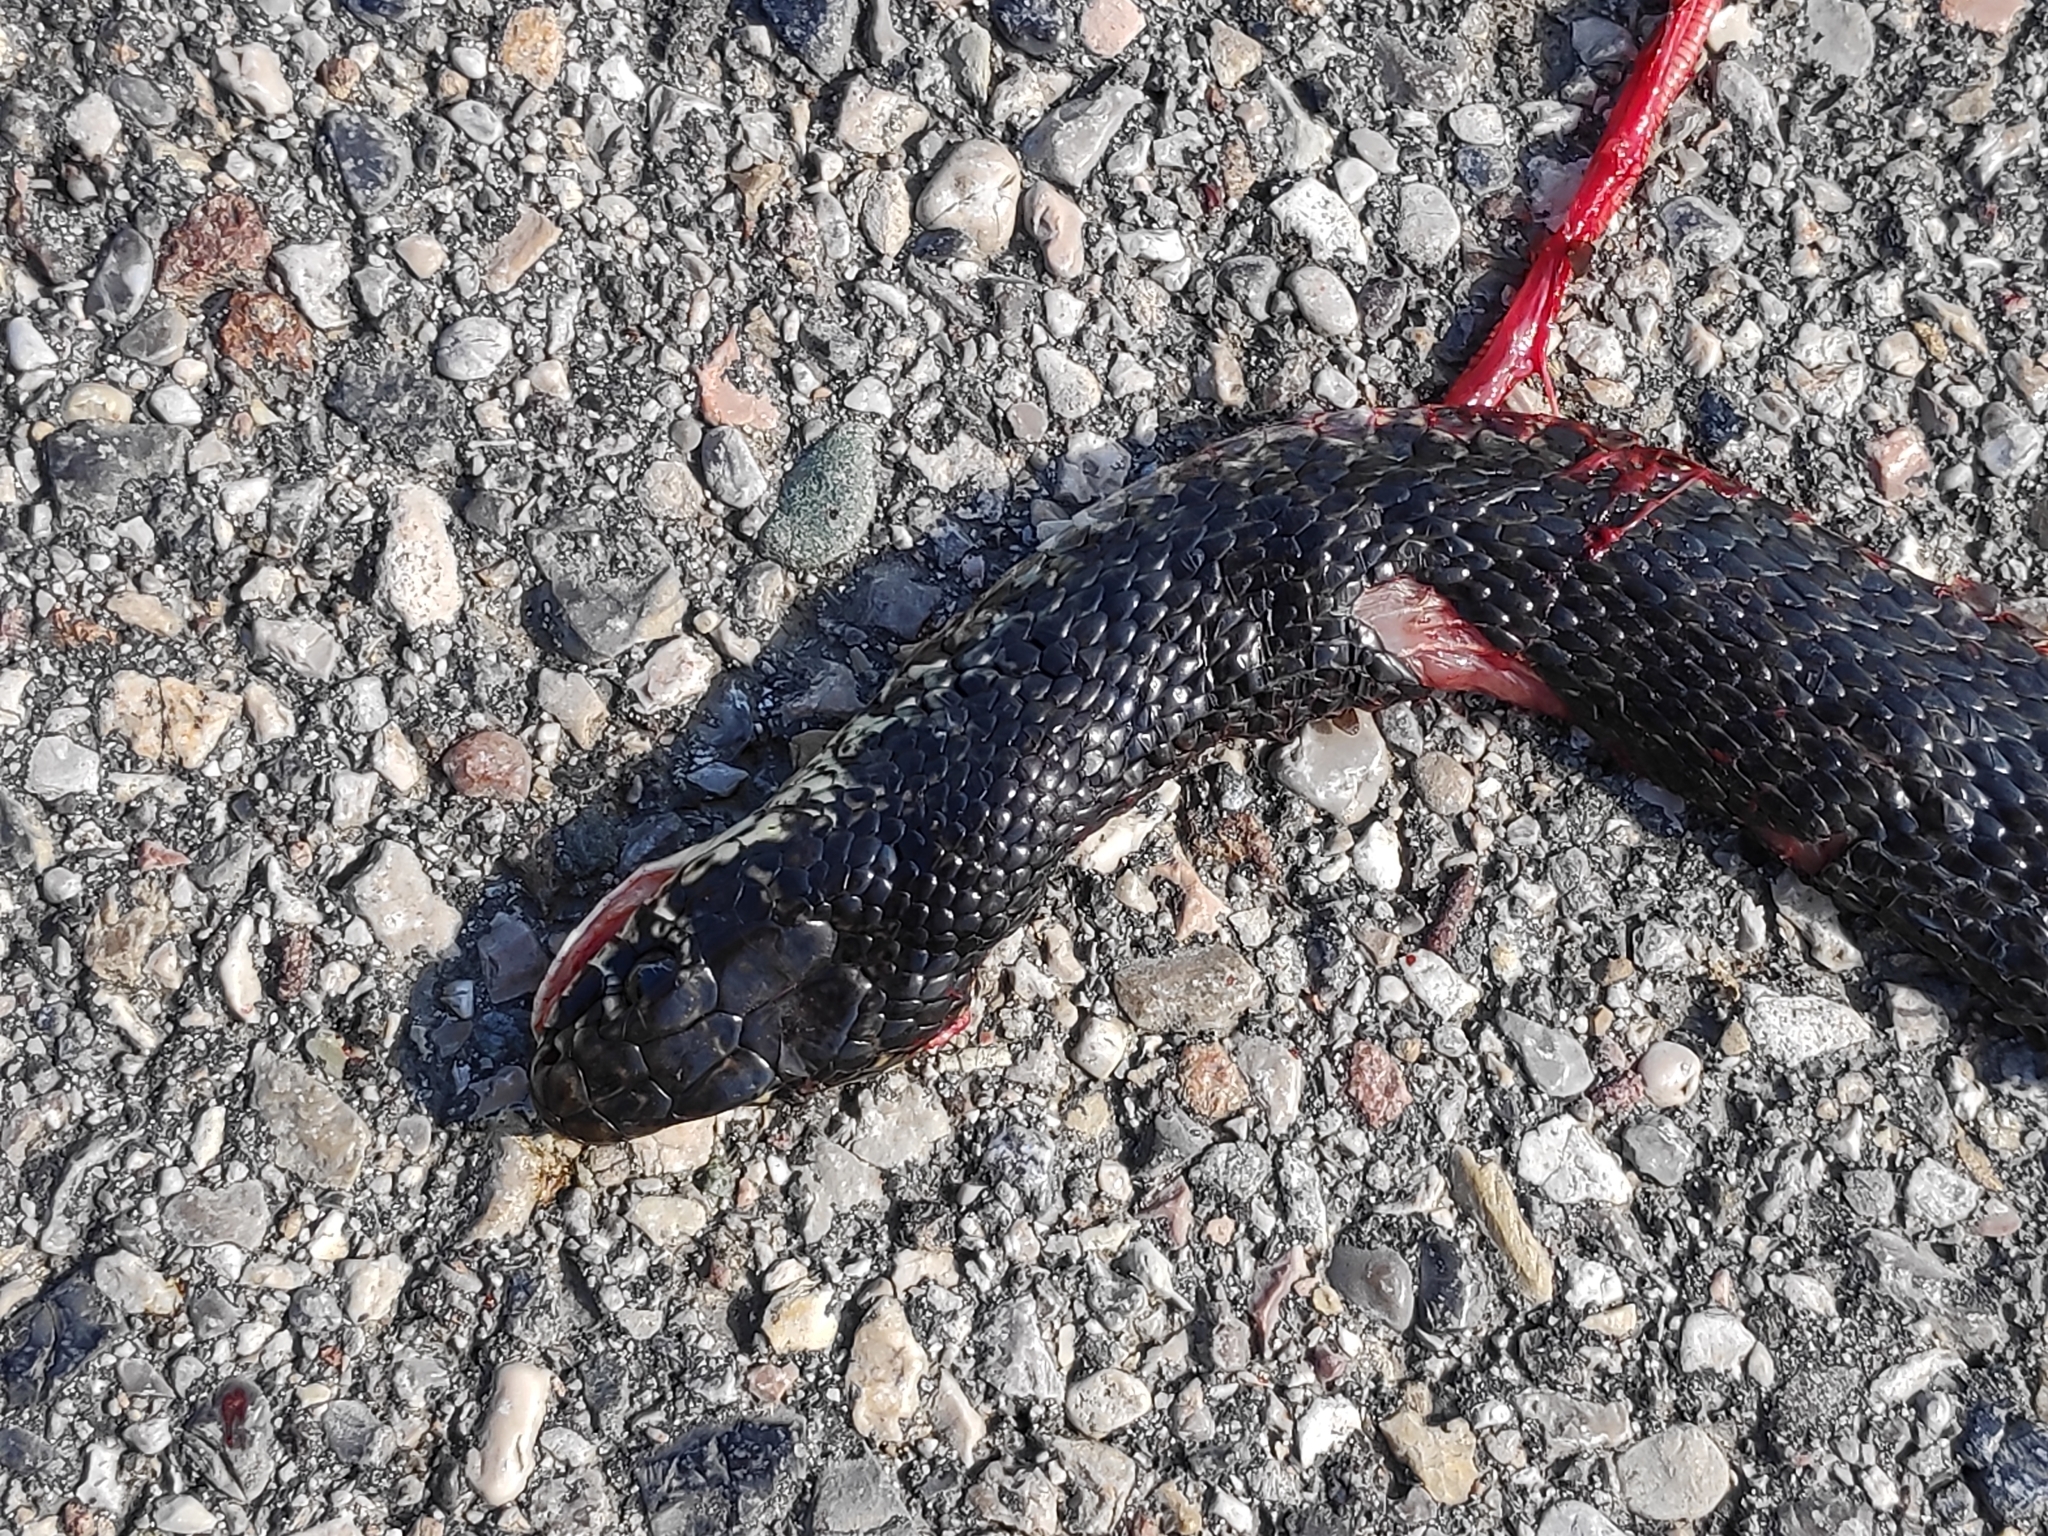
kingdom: Animalia
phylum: Chordata
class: Squamata
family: Colubridae
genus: Hierophis
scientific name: Hierophis viridiflavus
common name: Green whip snake
